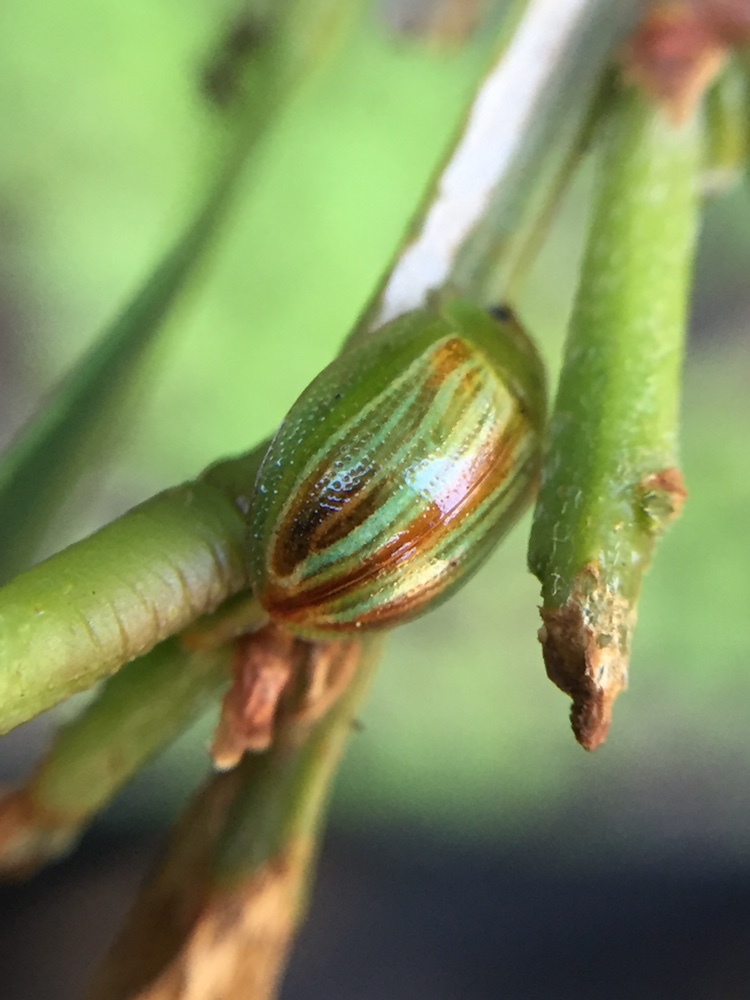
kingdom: Animalia
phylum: Arthropoda
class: Insecta
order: Coleoptera
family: Chrysomelidae
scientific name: Chrysomelidae
